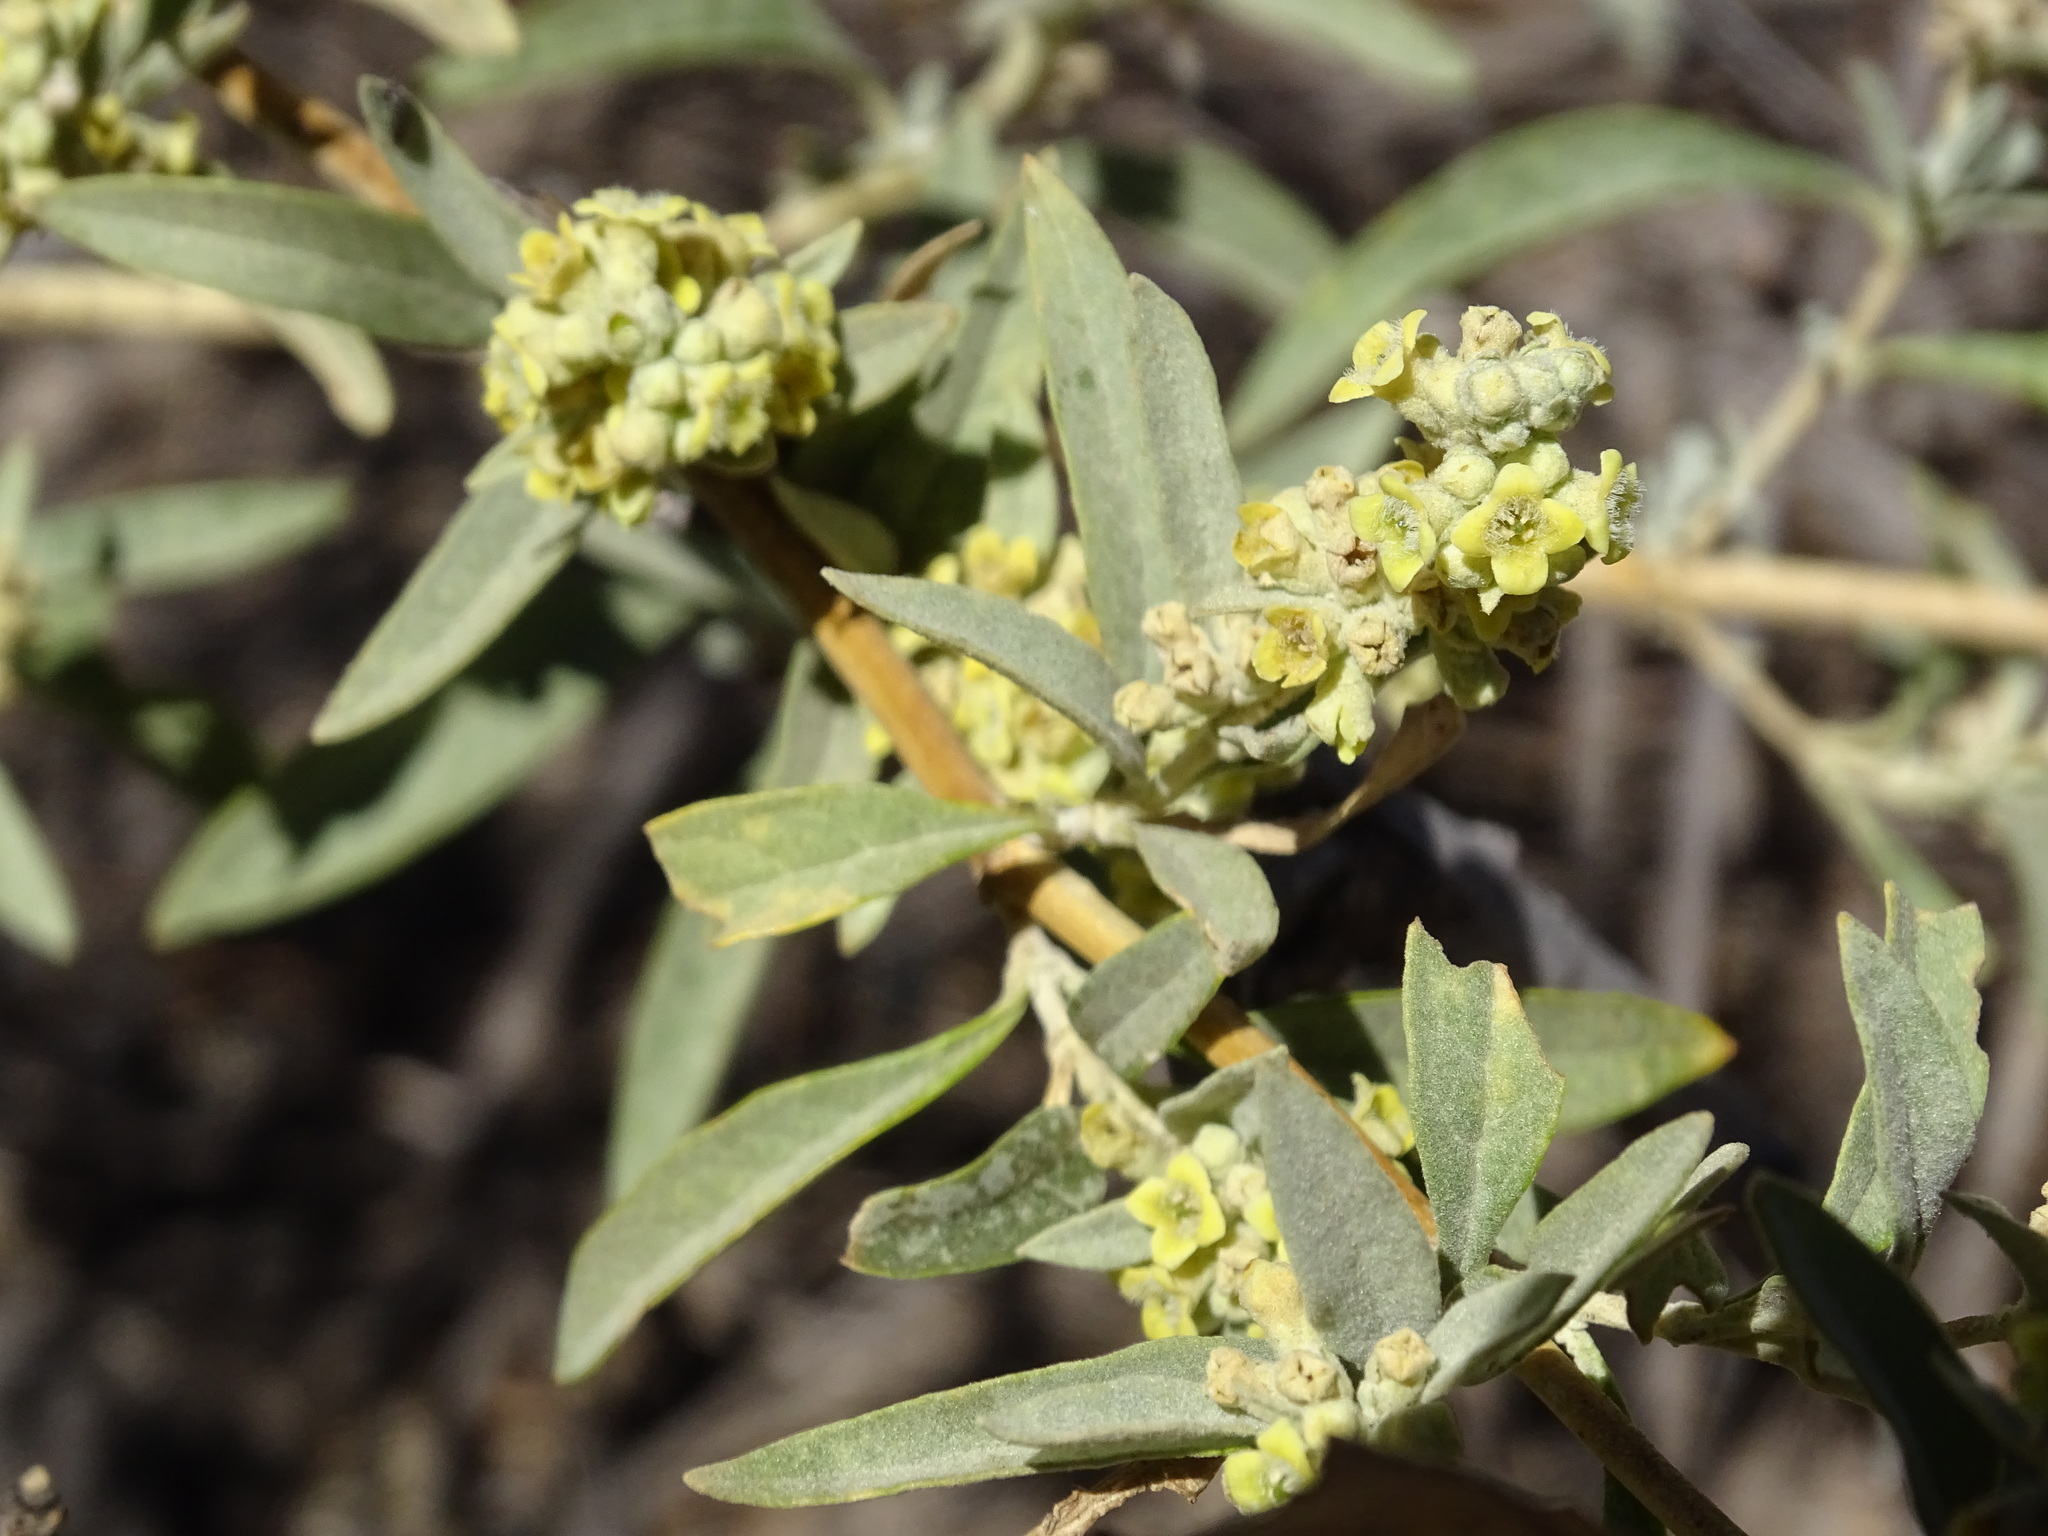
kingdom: Plantae
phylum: Tracheophyta
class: Magnoliopsida
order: Lamiales
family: Scrophulariaceae
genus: Buddleja
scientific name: Buddleja sessiliflora
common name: Rio grande butterfly-bush
